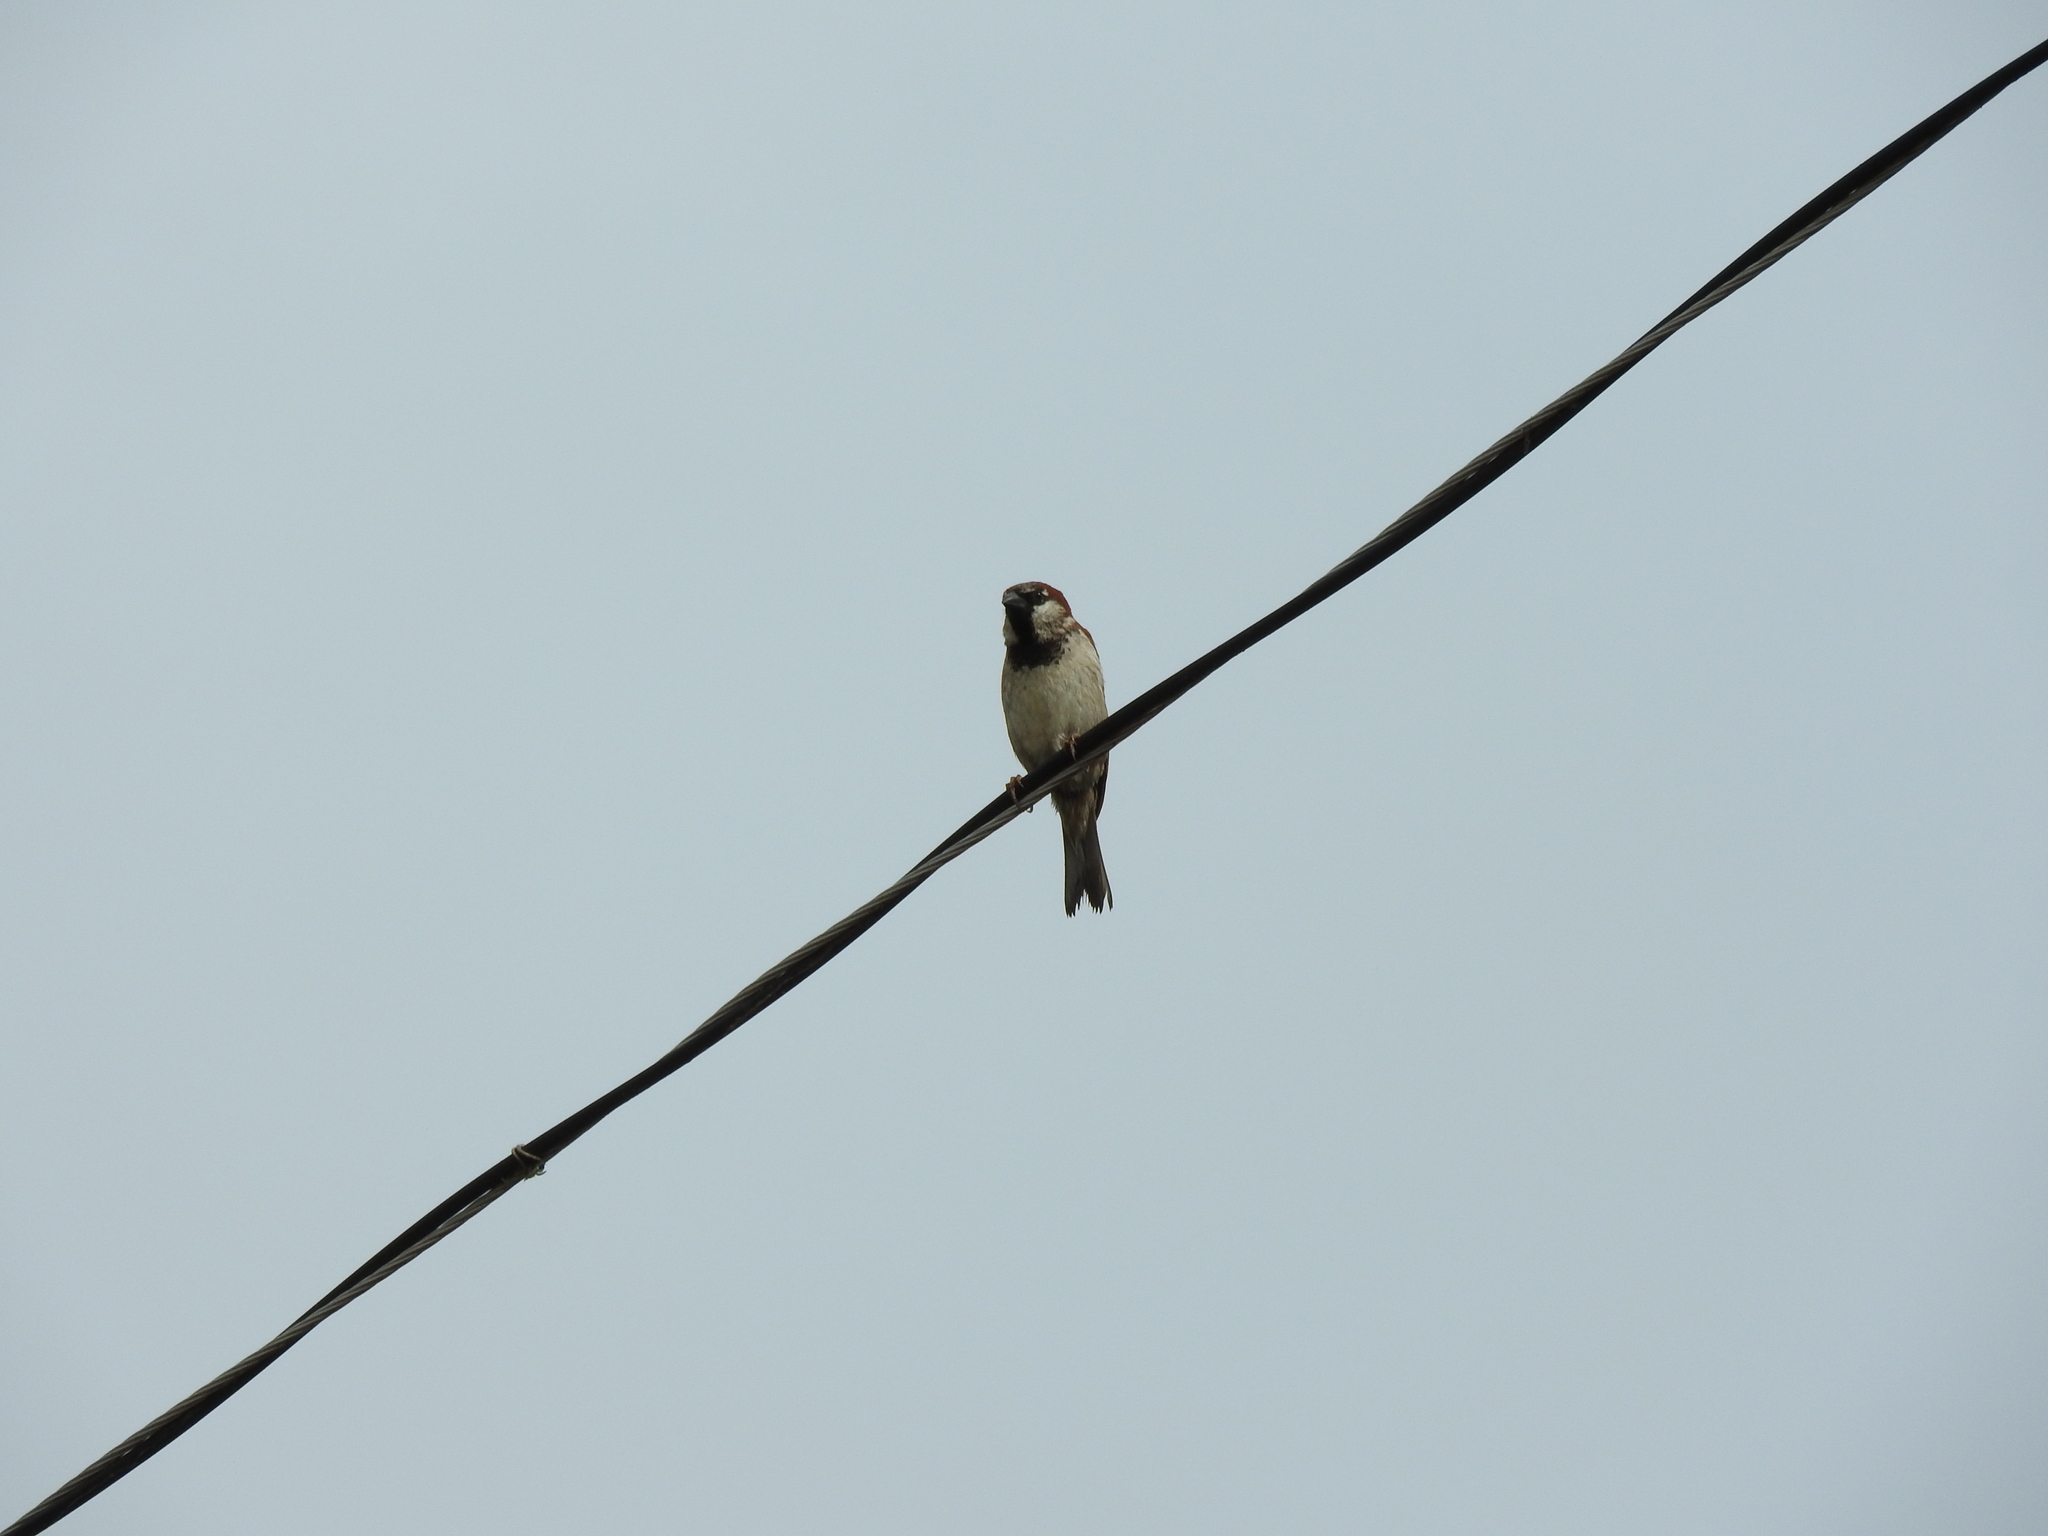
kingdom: Animalia
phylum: Chordata
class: Aves
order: Passeriformes
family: Passeridae
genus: Passer
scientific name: Passer domesticus
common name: House sparrow
